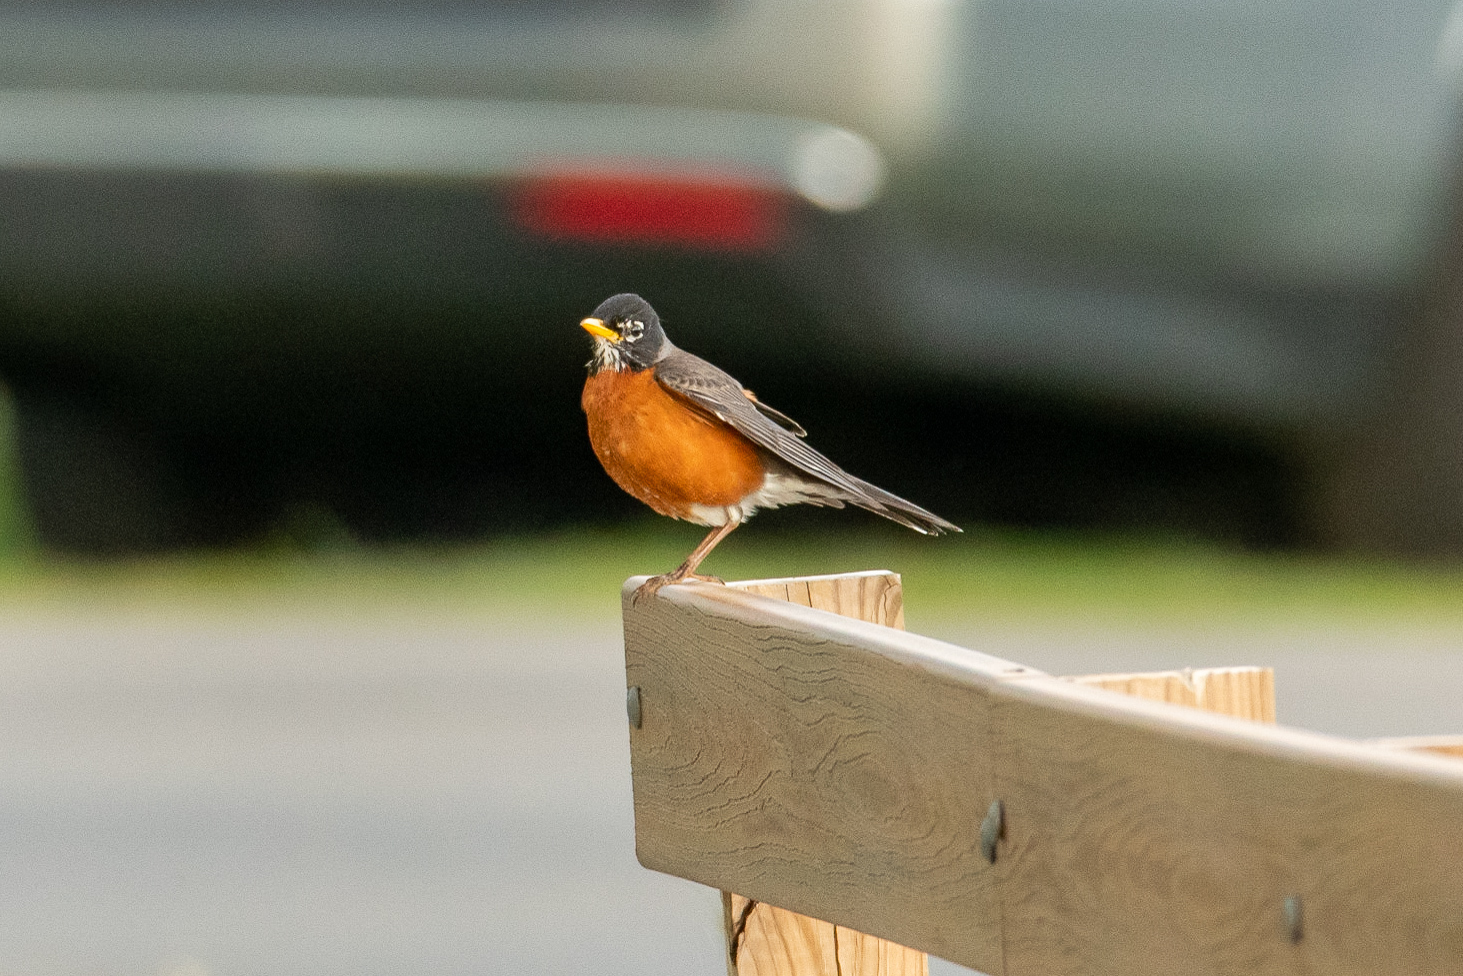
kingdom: Animalia
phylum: Chordata
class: Aves
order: Passeriformes
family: Turdidae
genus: Turdus
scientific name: Turdus migratorius
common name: American robin
